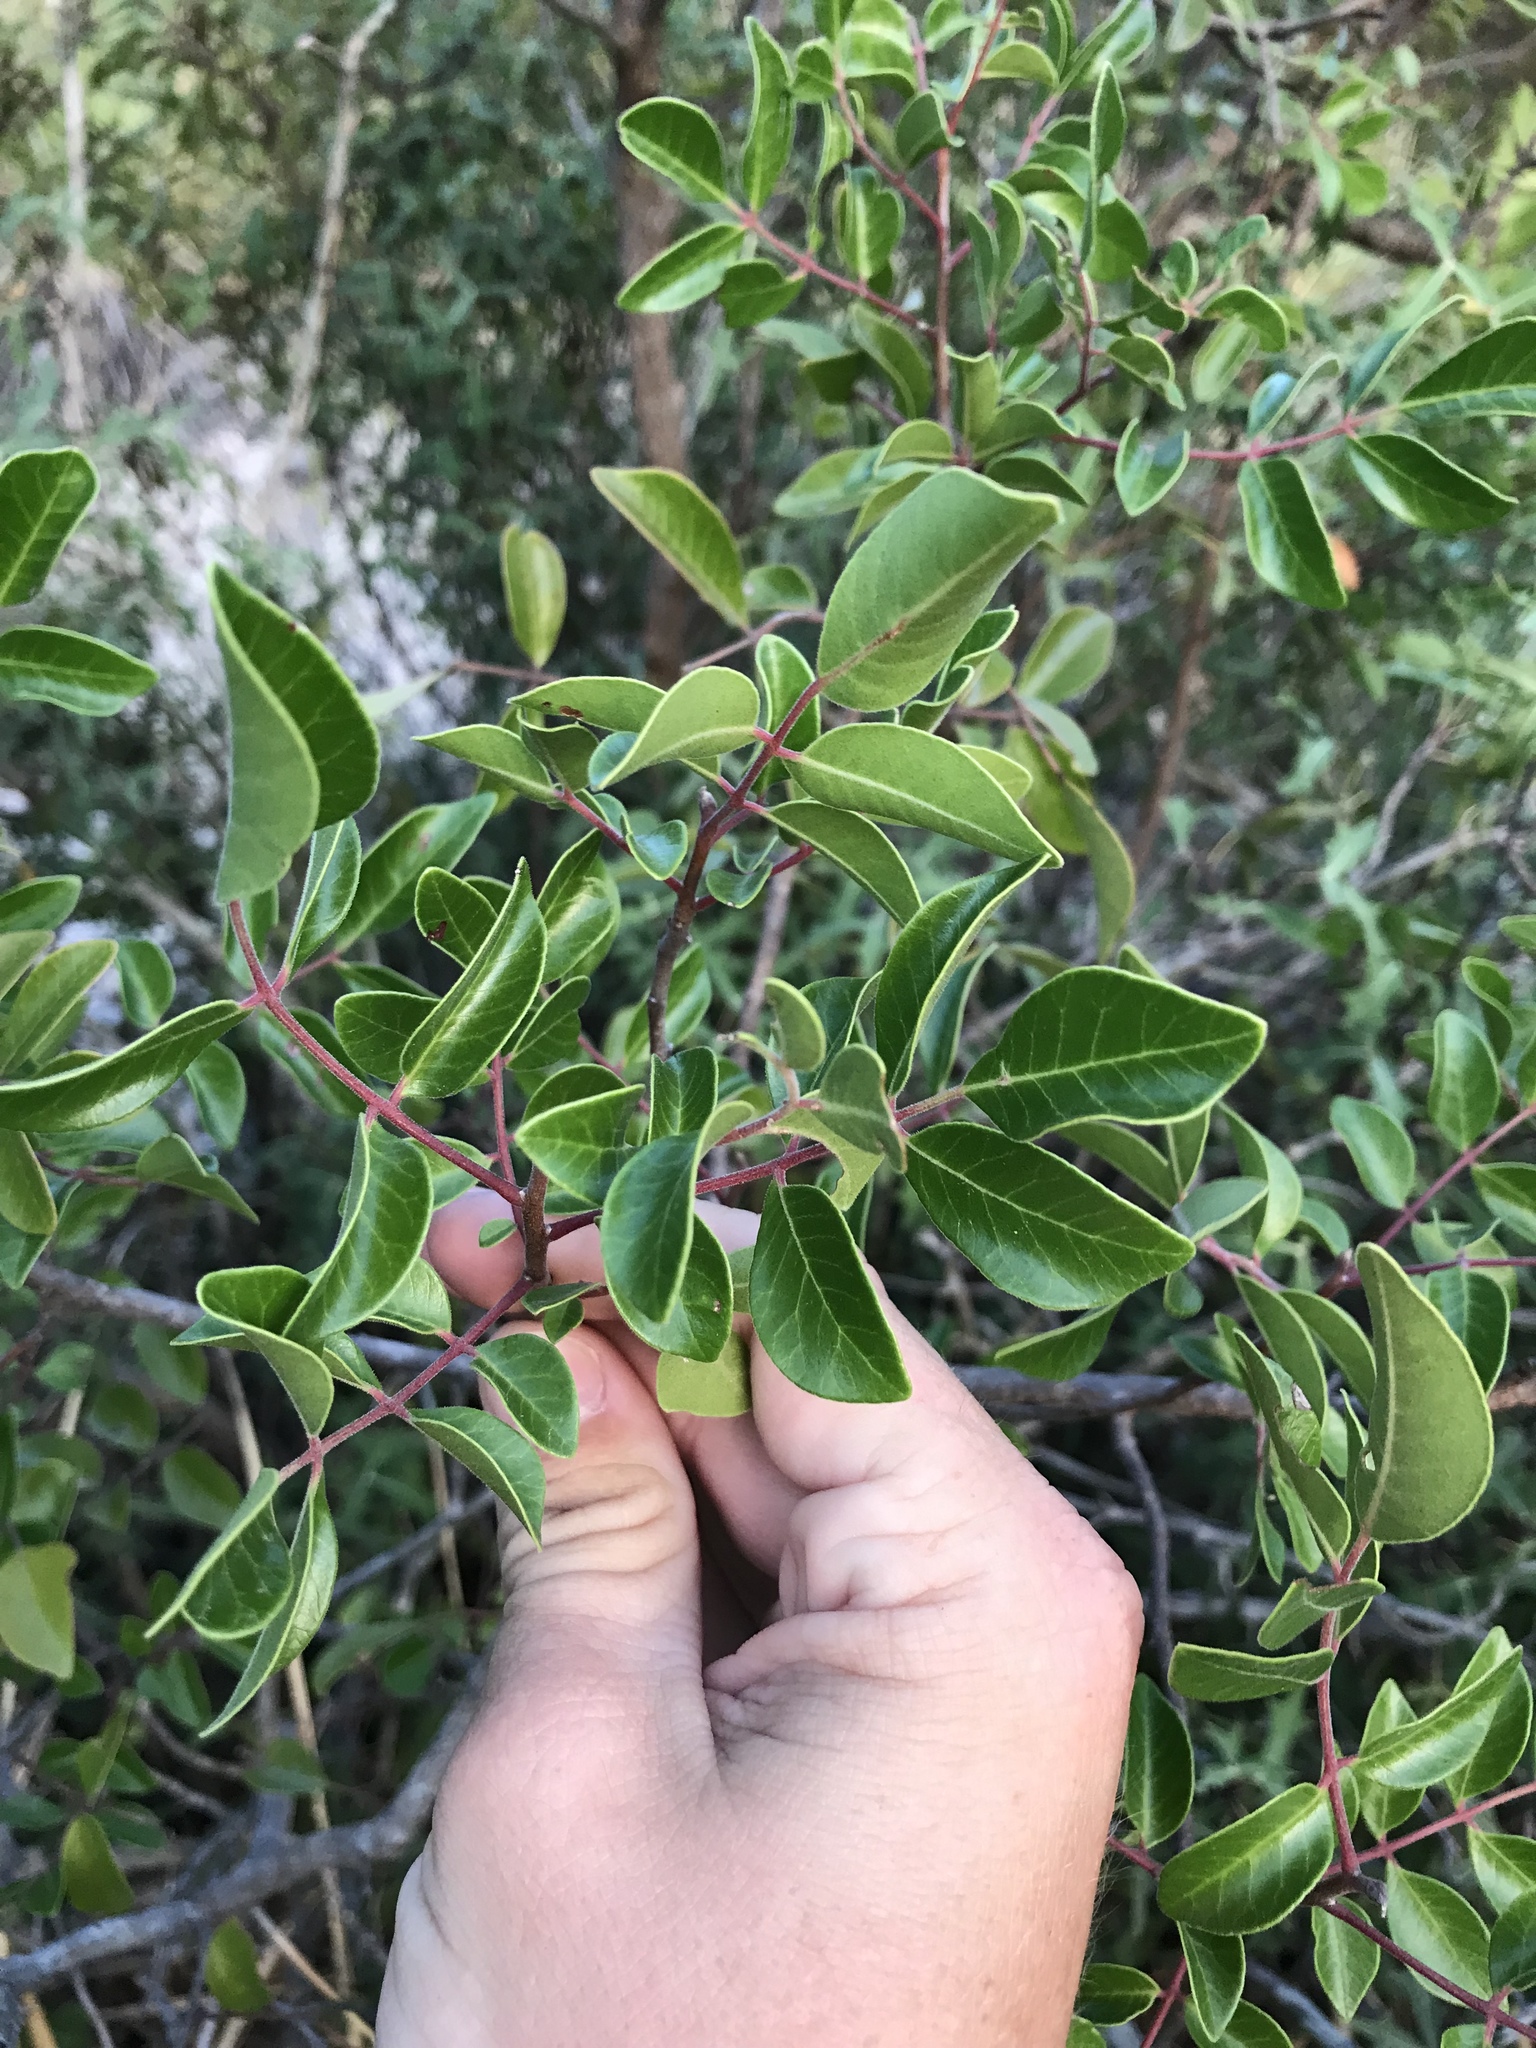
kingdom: Plantae
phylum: Tracheophyta
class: Magnoliopsida
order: Sapindales
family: Anacardiaceae
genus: Rhus
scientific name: Rhus virens
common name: Evergreen sumac
